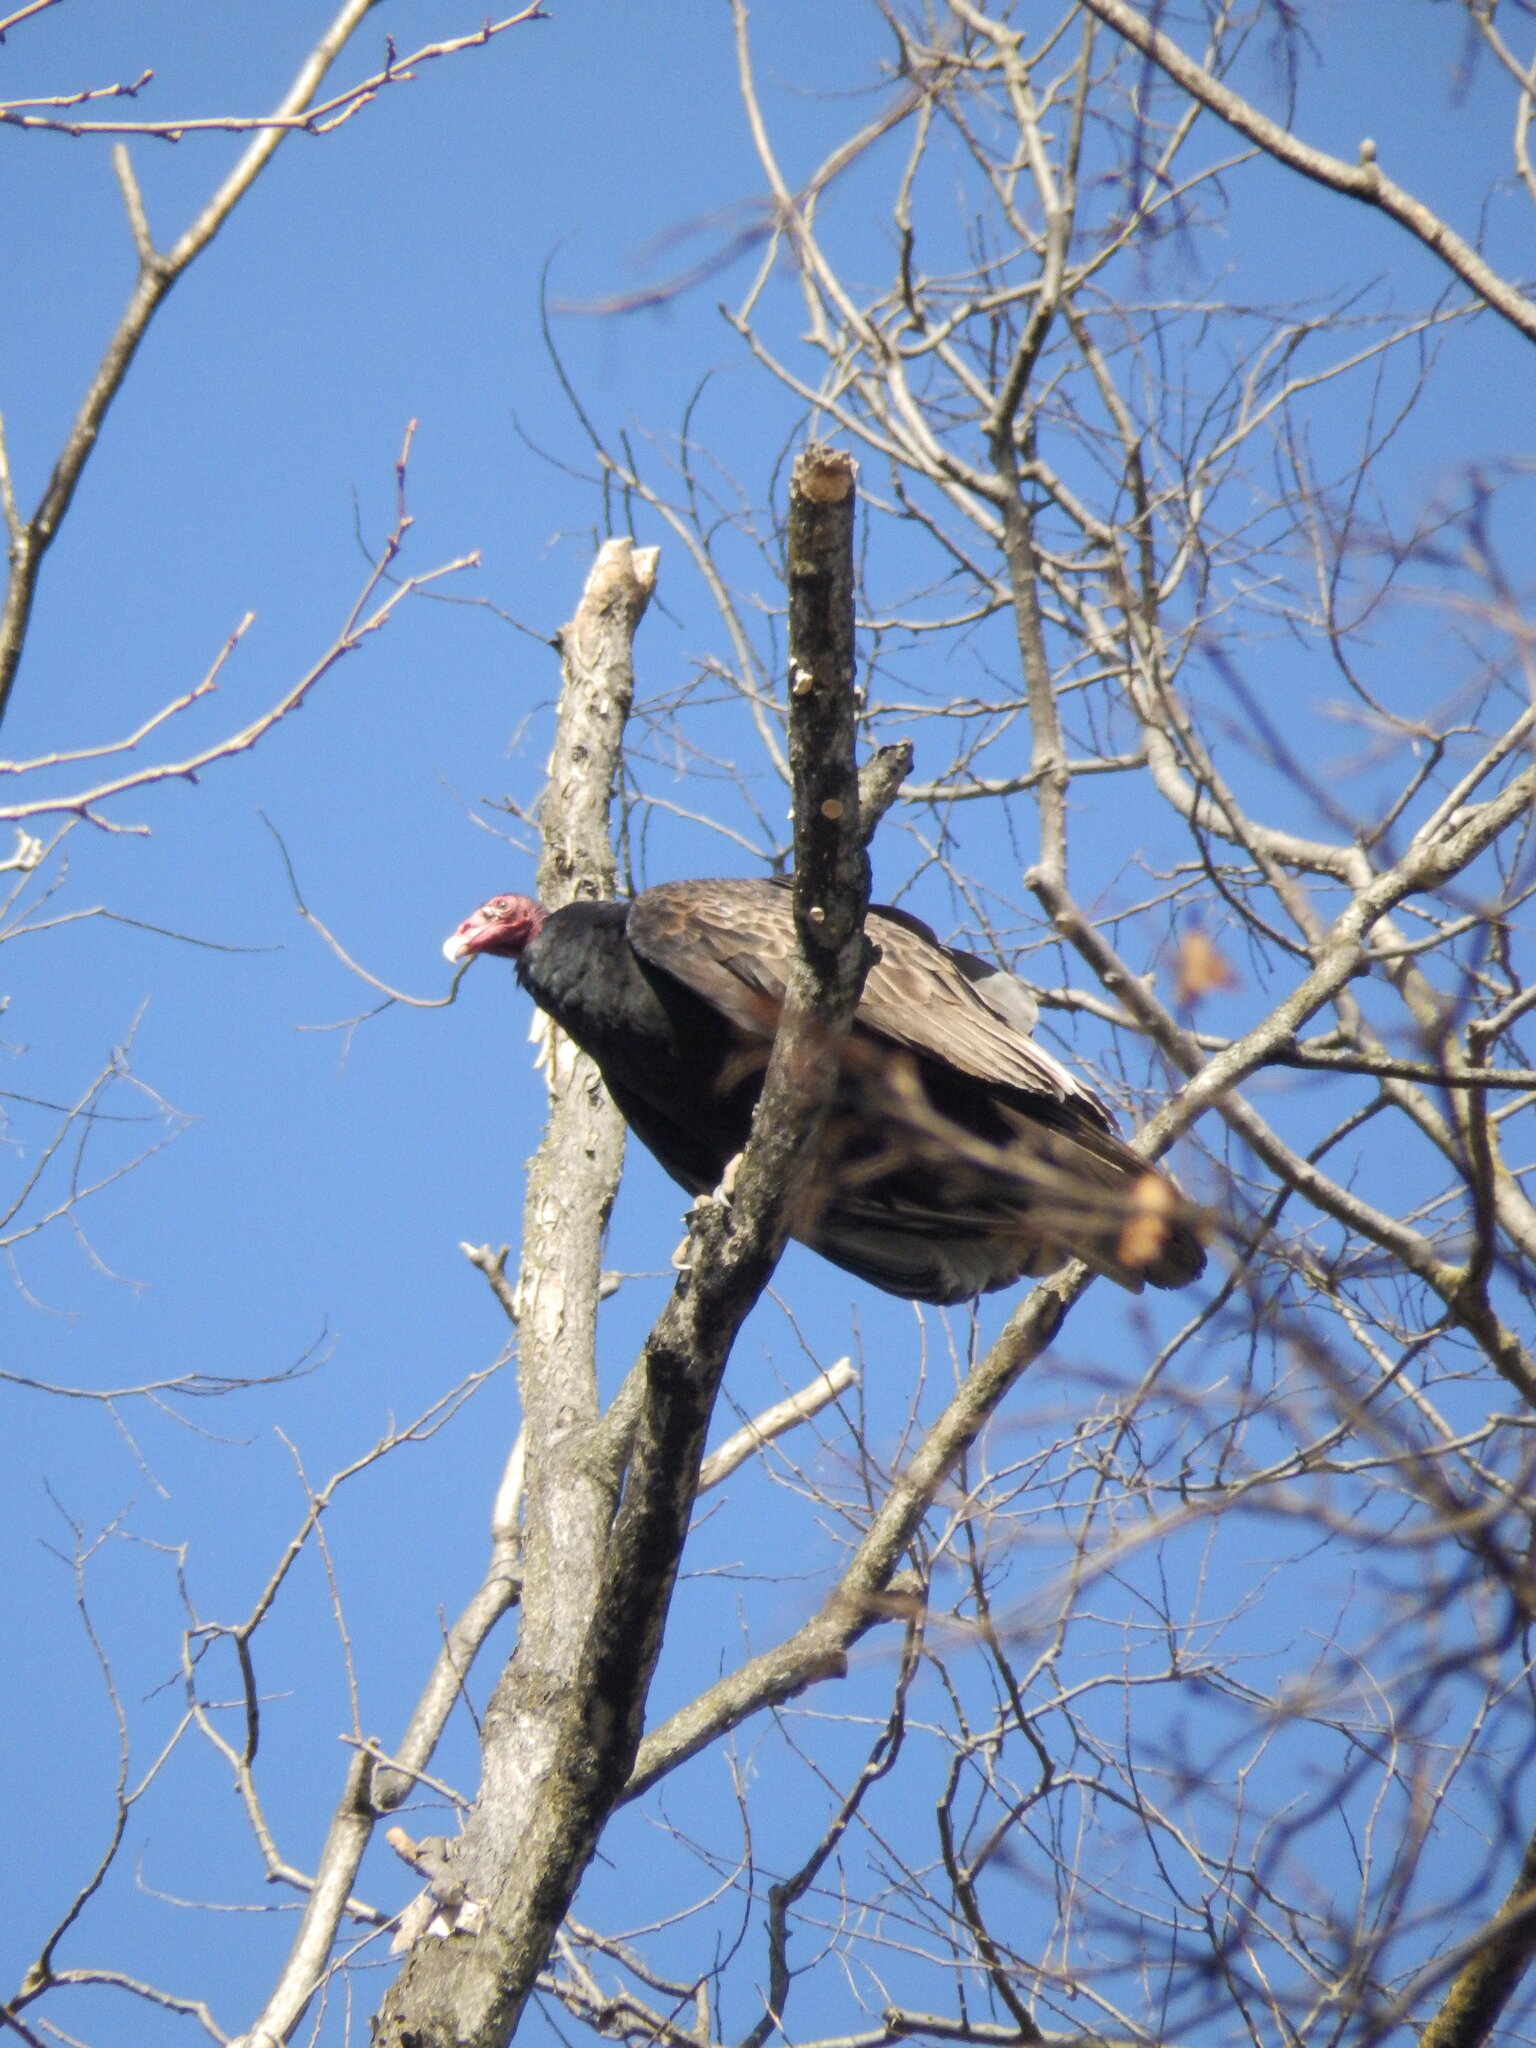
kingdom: Animalia
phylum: Chordata
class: Aves
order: Accipitriformes
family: Cathartidae
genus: Cathartes
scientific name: Cathartes aura
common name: Turkey vulture
